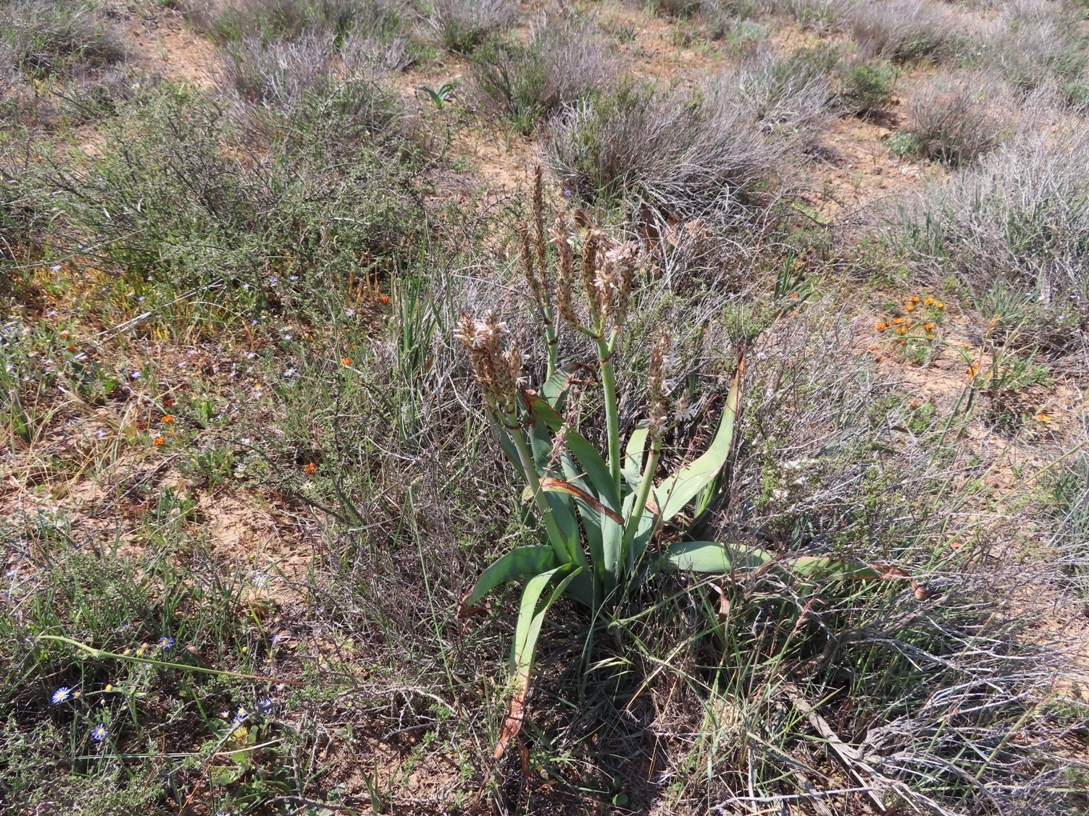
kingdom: Plantae
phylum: Tracheophyta
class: Liliopsida
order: Asparagales
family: Asphodelaceae
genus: Trachyandra
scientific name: Trachyandra falcata
